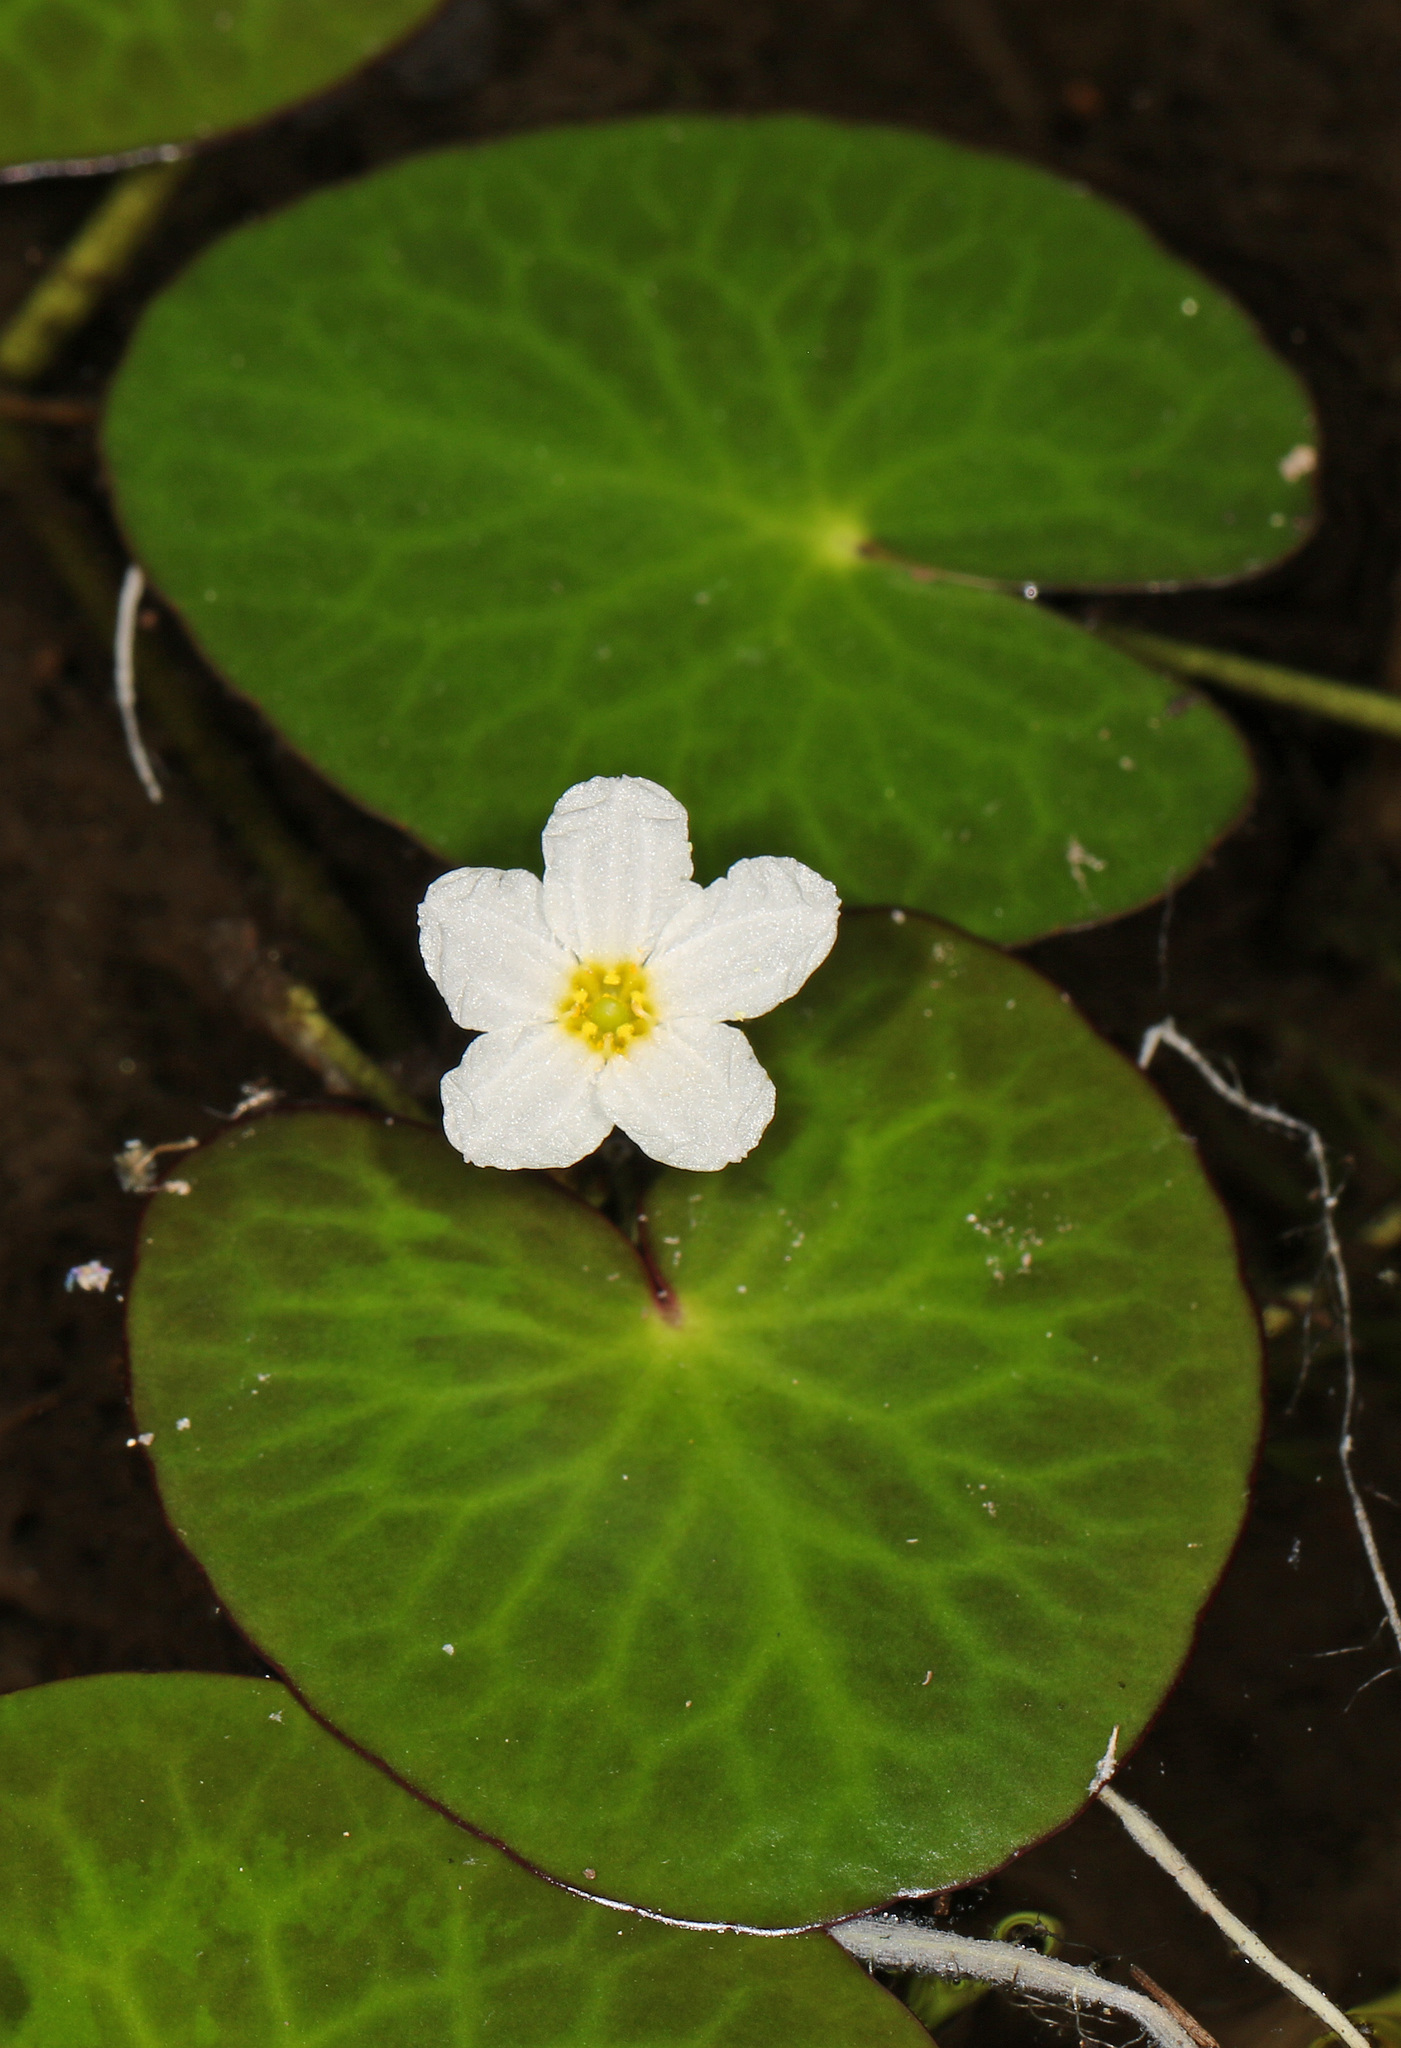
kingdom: Plantae
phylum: Tracheophyta
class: Magnoliopsida
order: Asterales
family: Menyanthaceae
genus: Nymphoides
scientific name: Nymphoides cordata
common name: Eight-angled floatingheart
